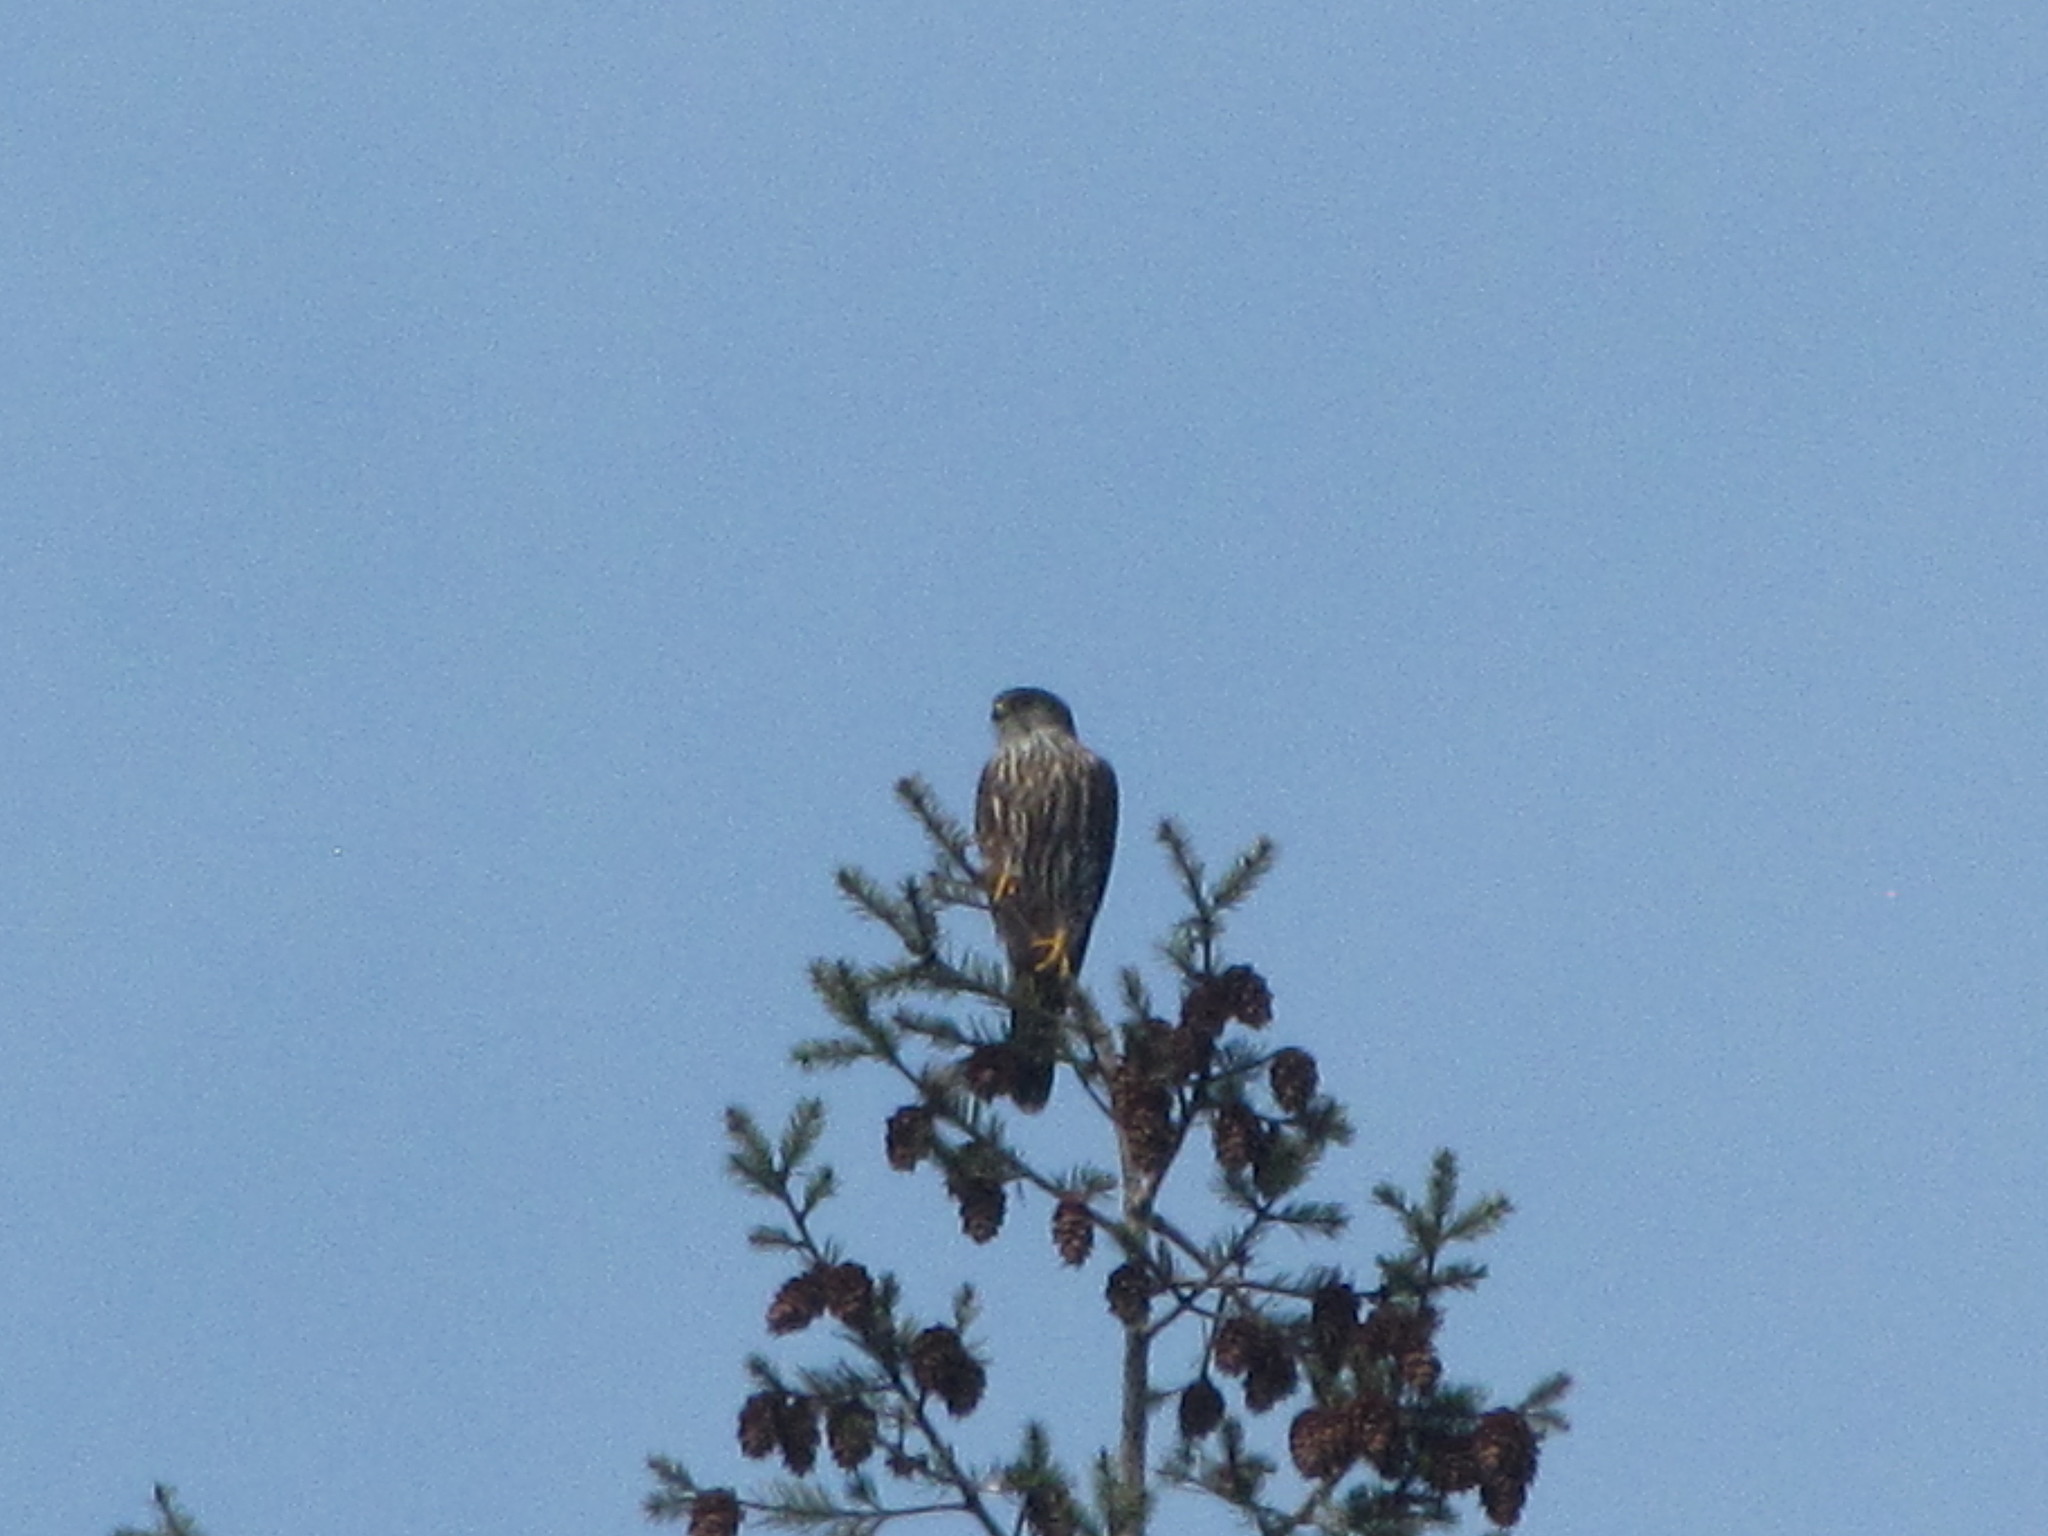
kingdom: Animalia
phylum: Chordata
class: Aves
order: Falconiformes
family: Falconidae
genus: Falco
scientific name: Falco columbarius
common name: Merlin
